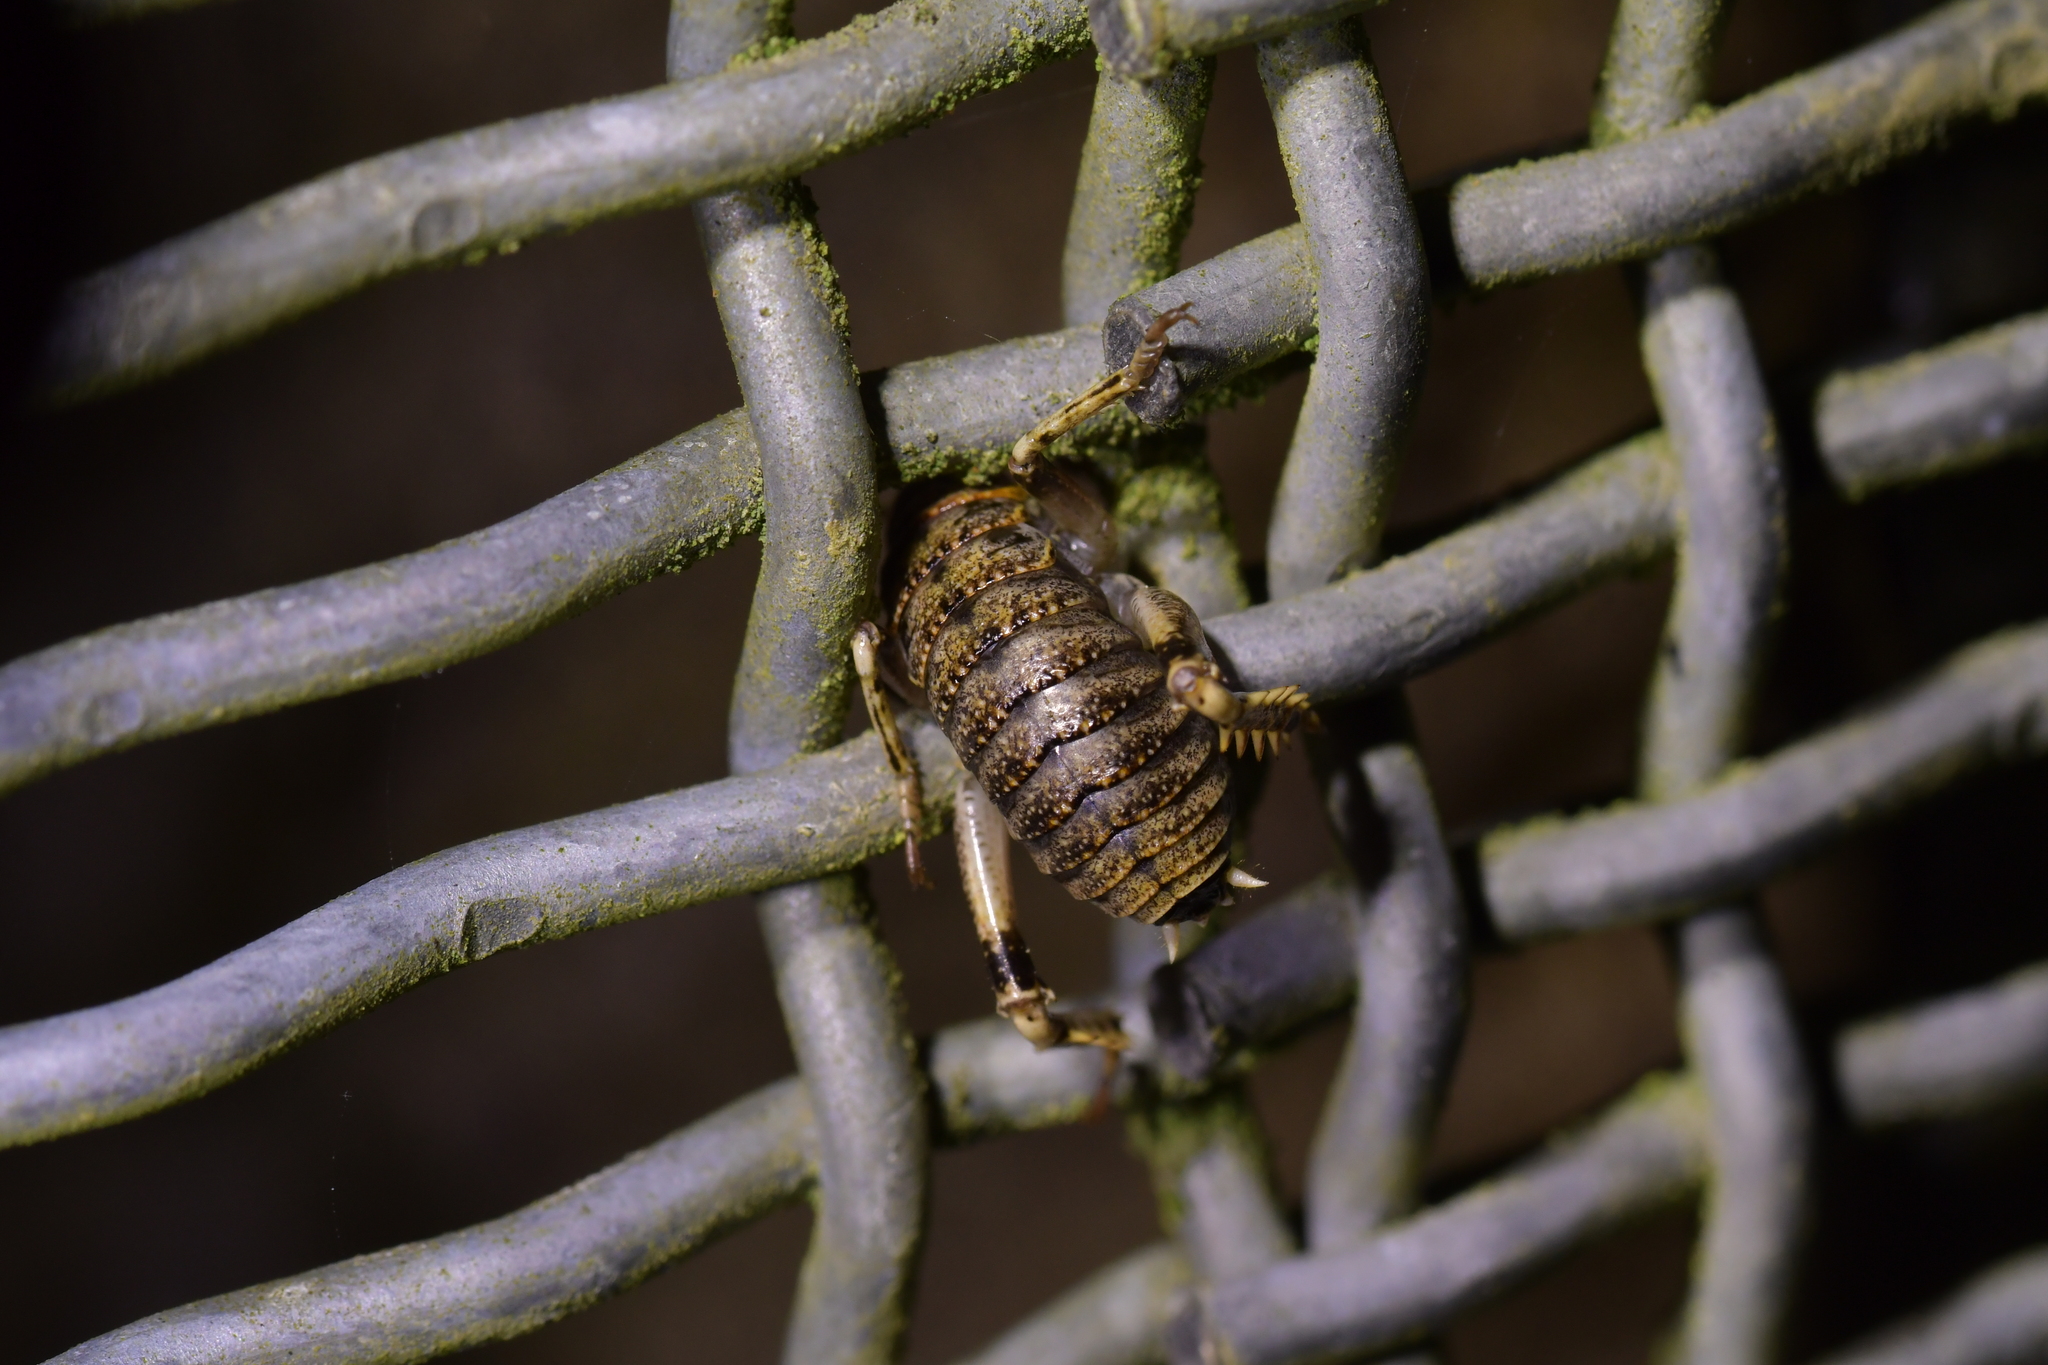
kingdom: Animalia
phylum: Arthropoda
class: Insecta
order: Orthoptera
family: Anostostomatidae
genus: Deinacrida
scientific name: Deinacrida rugosa
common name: Stephens island weta
